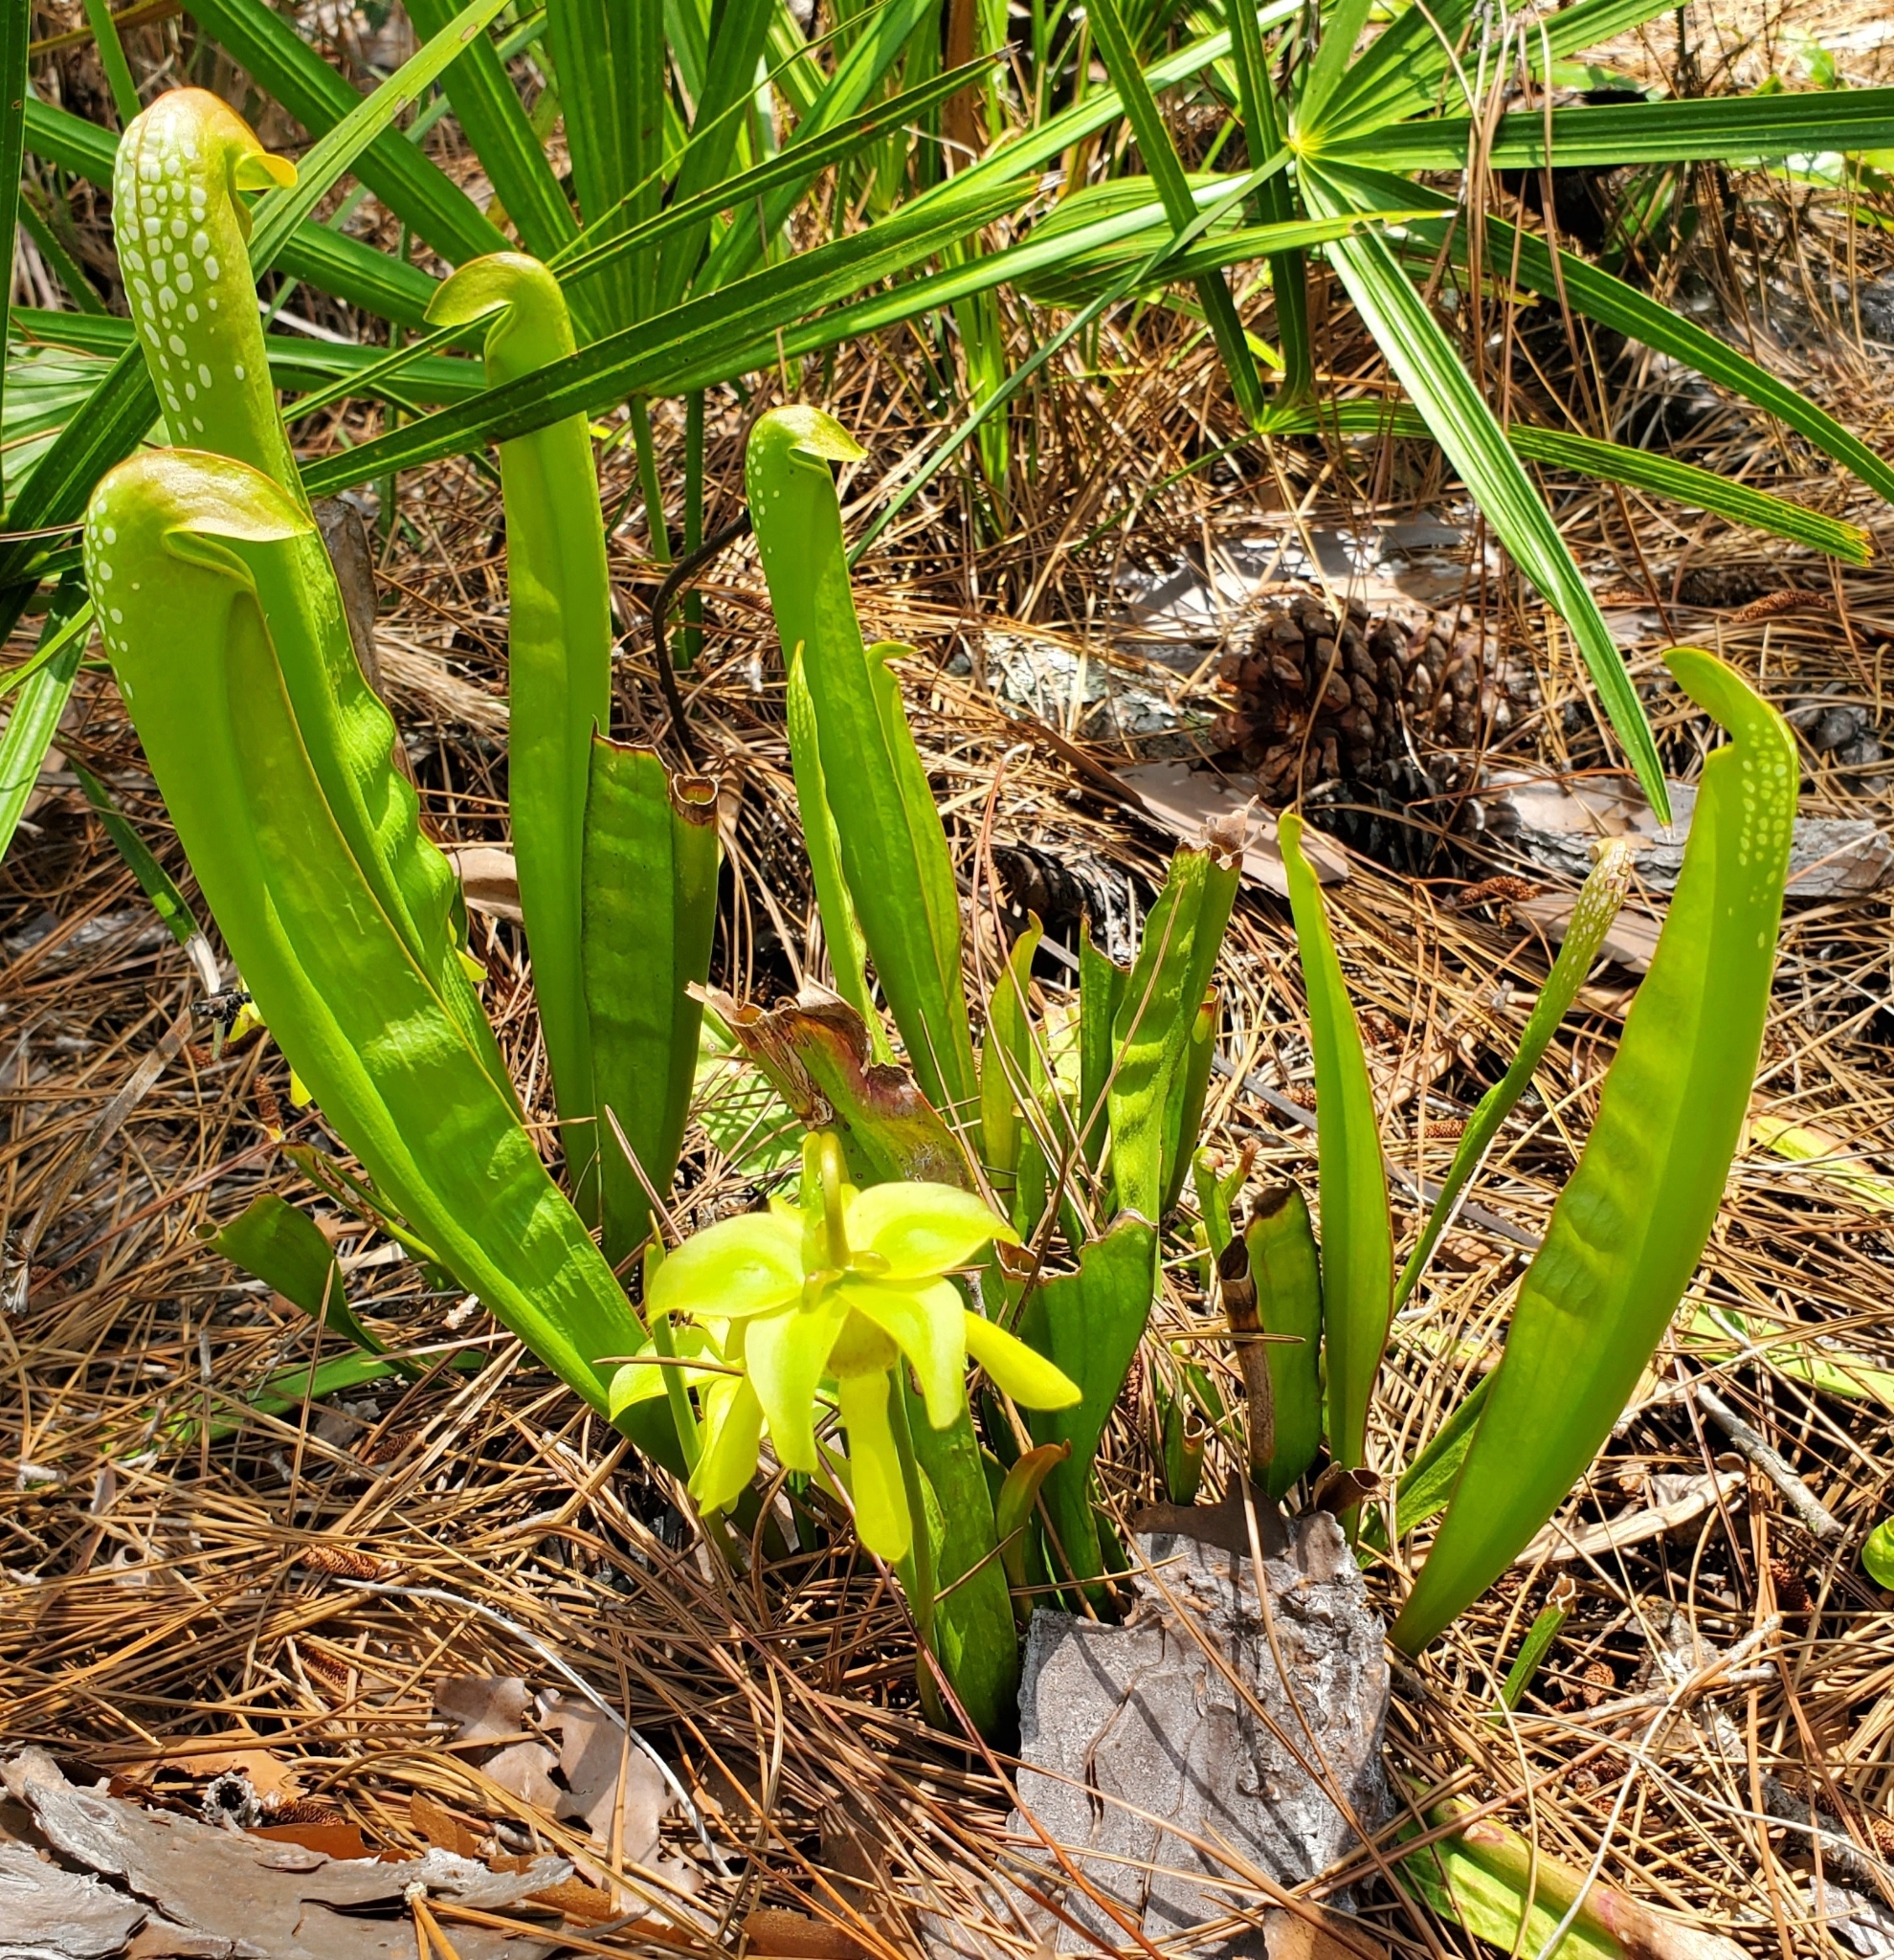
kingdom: Plantae
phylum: Tracheophyta
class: Magnoliopsida
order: Ericales
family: Sarraceniaceae
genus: Sarracenia
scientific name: Sarracenia minor
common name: Rainhat-trumpet
